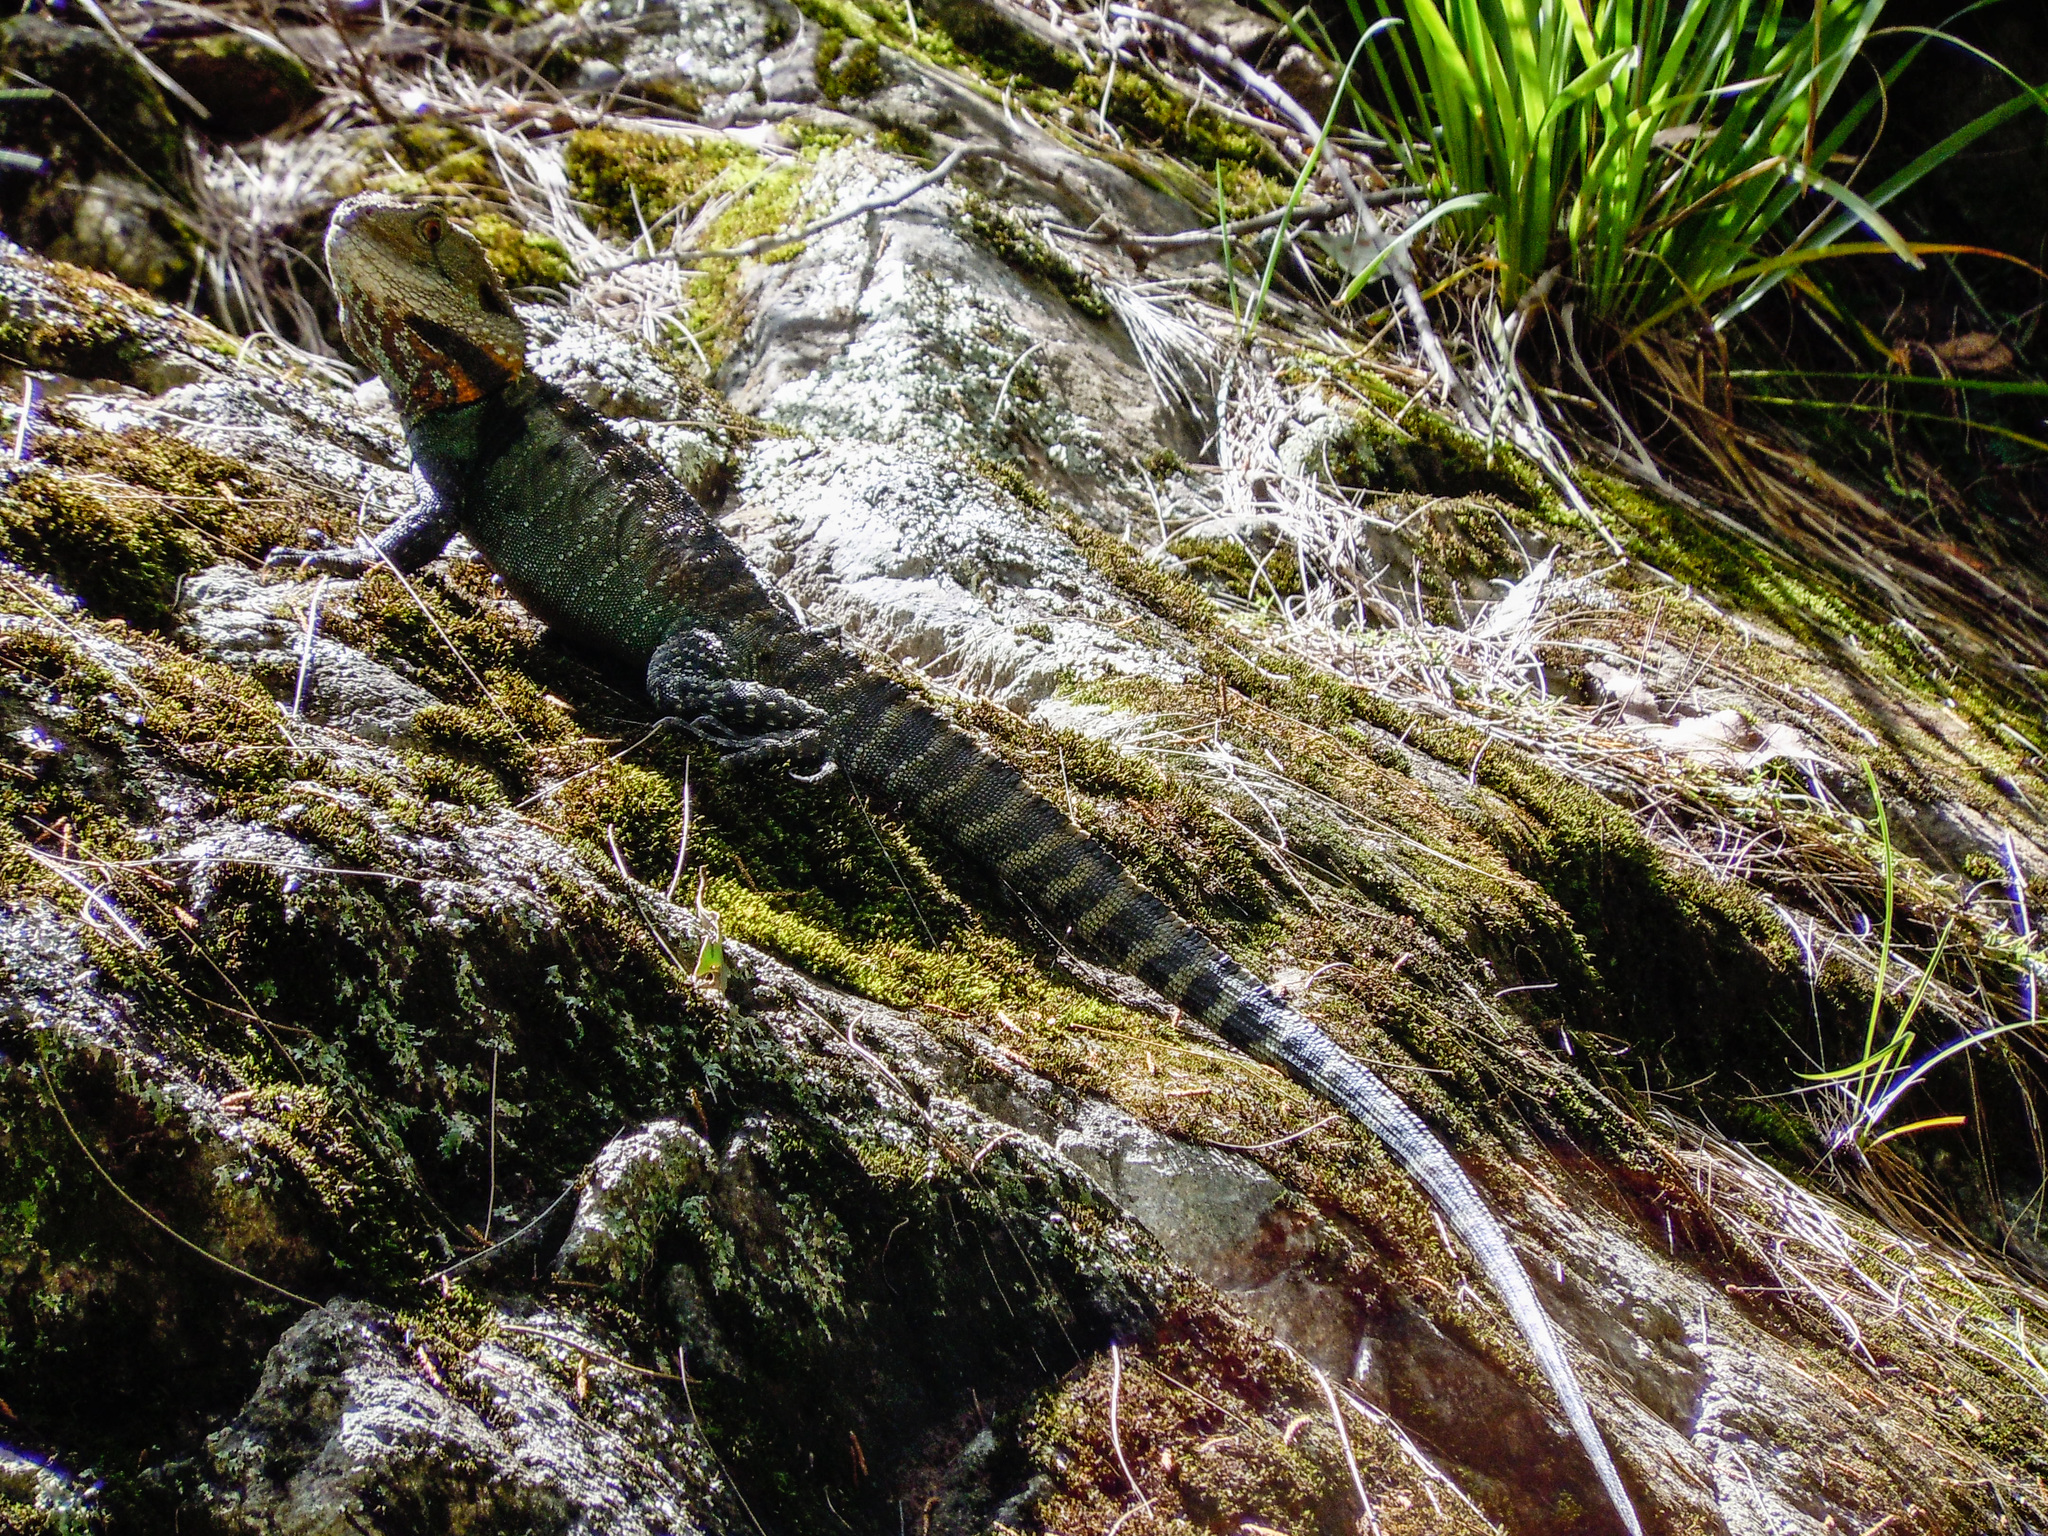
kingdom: Animalia
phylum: Chordata
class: Squamata
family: Agamidae
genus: Intellagama
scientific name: Intellagama lesueurii
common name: Eastern water dragon
